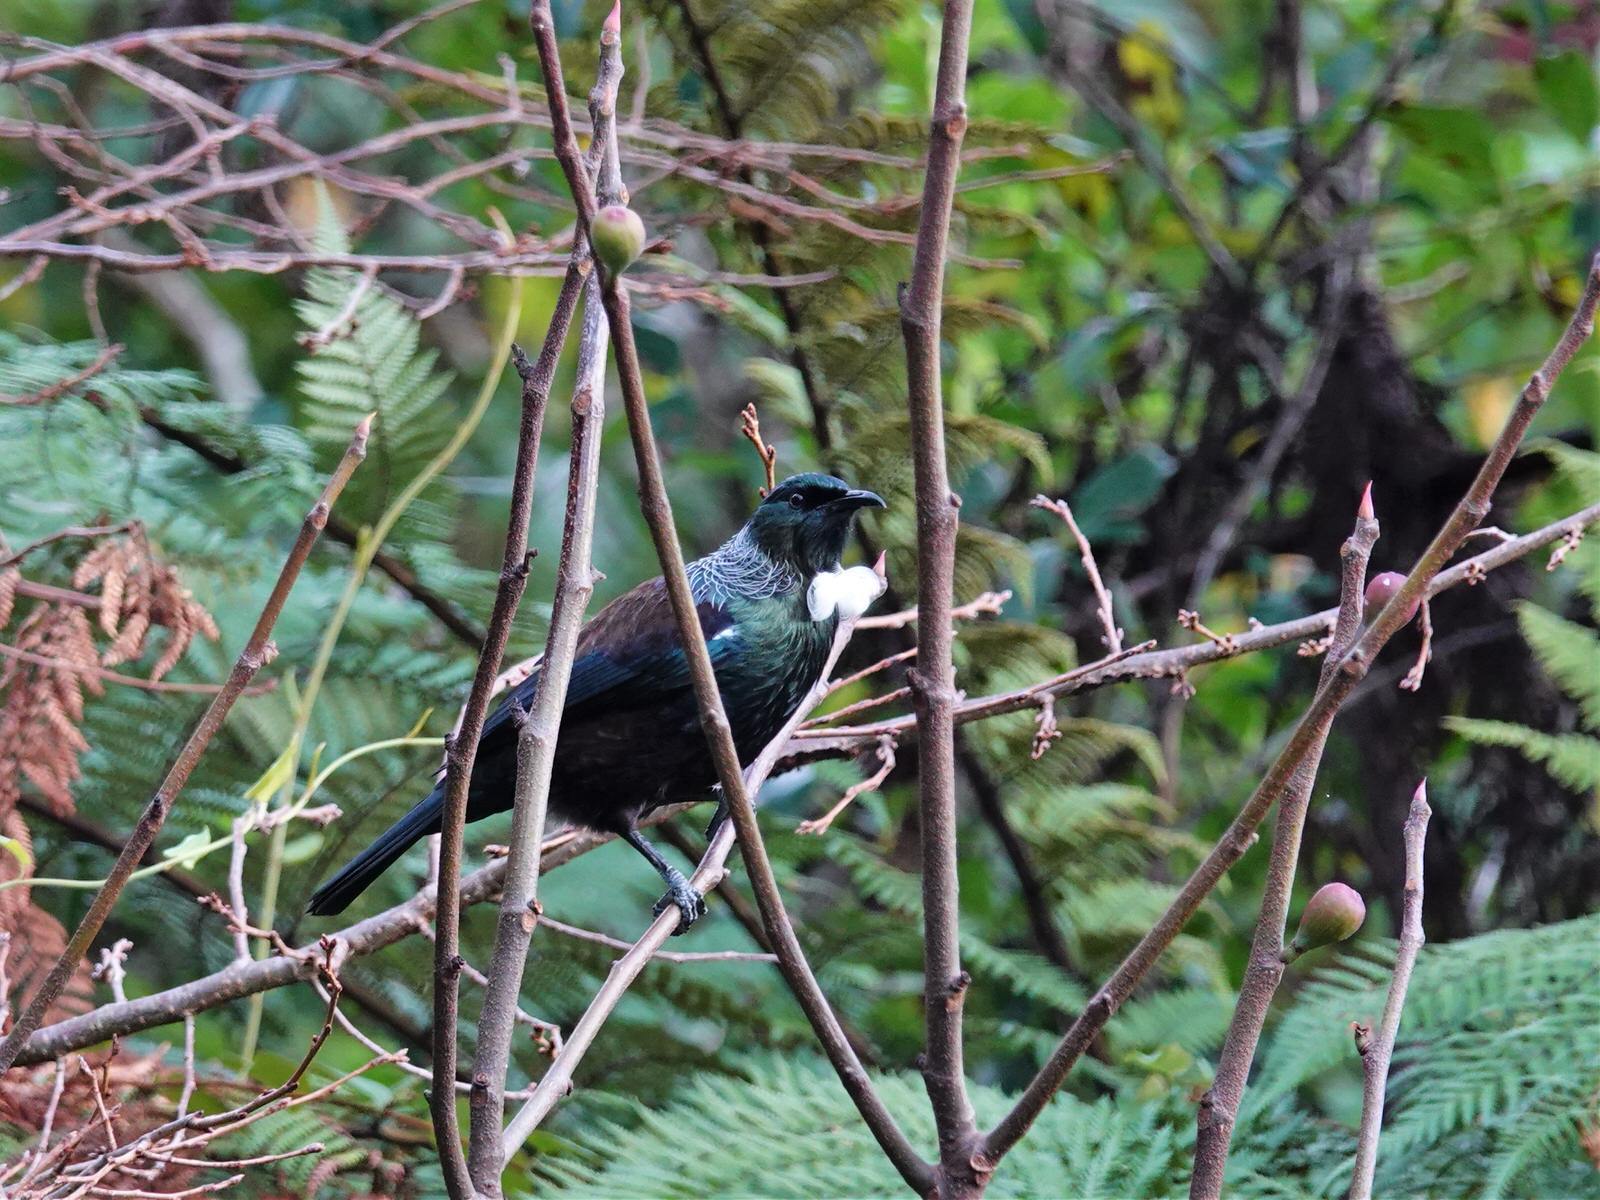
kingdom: Animalia
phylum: Chordata
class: Aves
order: Passeriformes
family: Meliphagidae
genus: Prosthemadera
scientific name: Prosthemadera novaeseelandiae
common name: Tui
